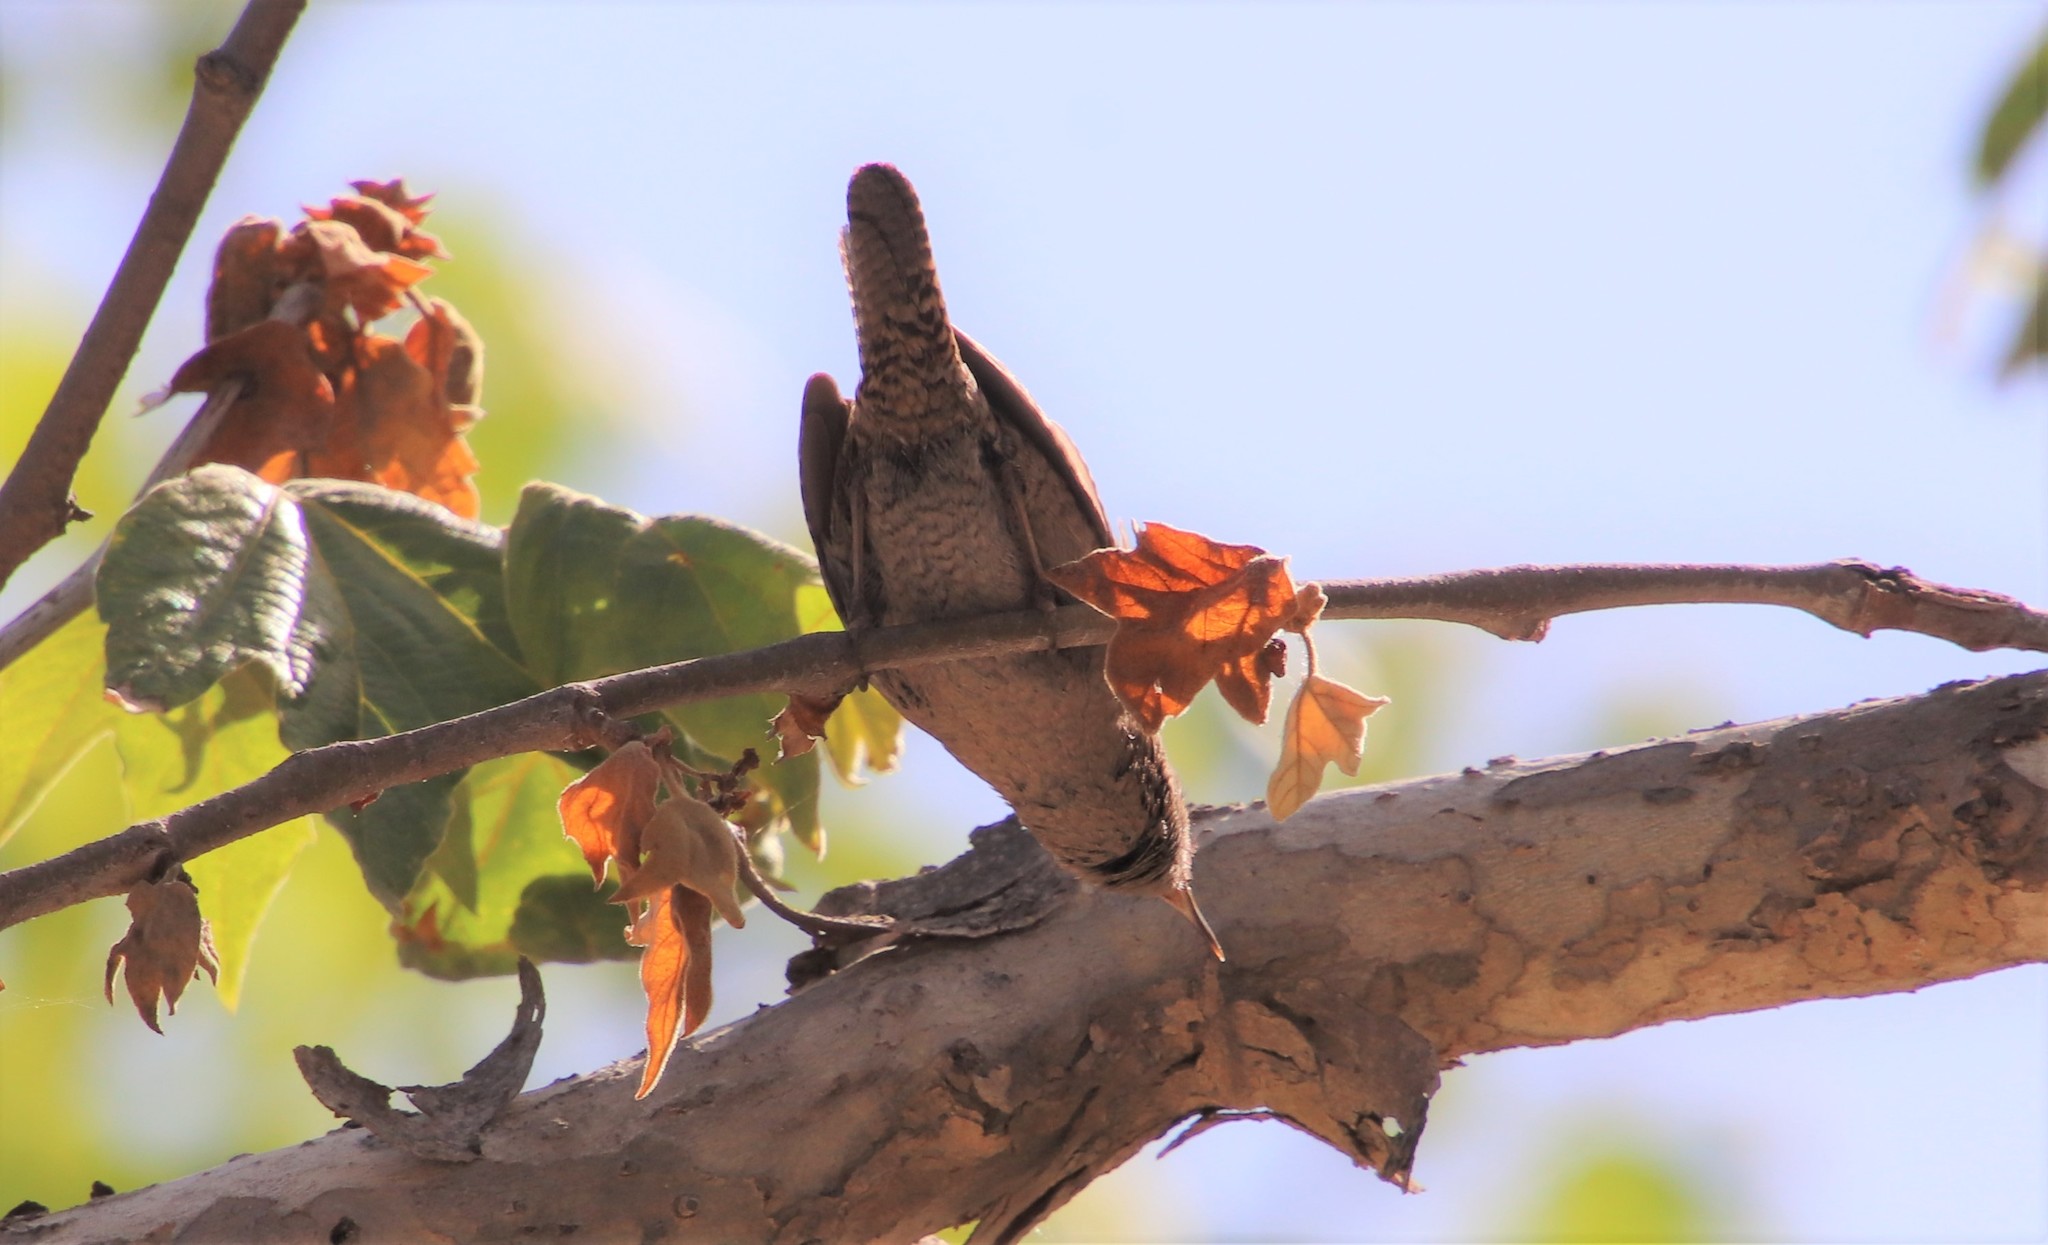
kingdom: Animalia
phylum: Chordata
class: Aves
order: Passeriformes
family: Troglodytidae
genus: Troglodytes
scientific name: Troglodytes aedon
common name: House wren
